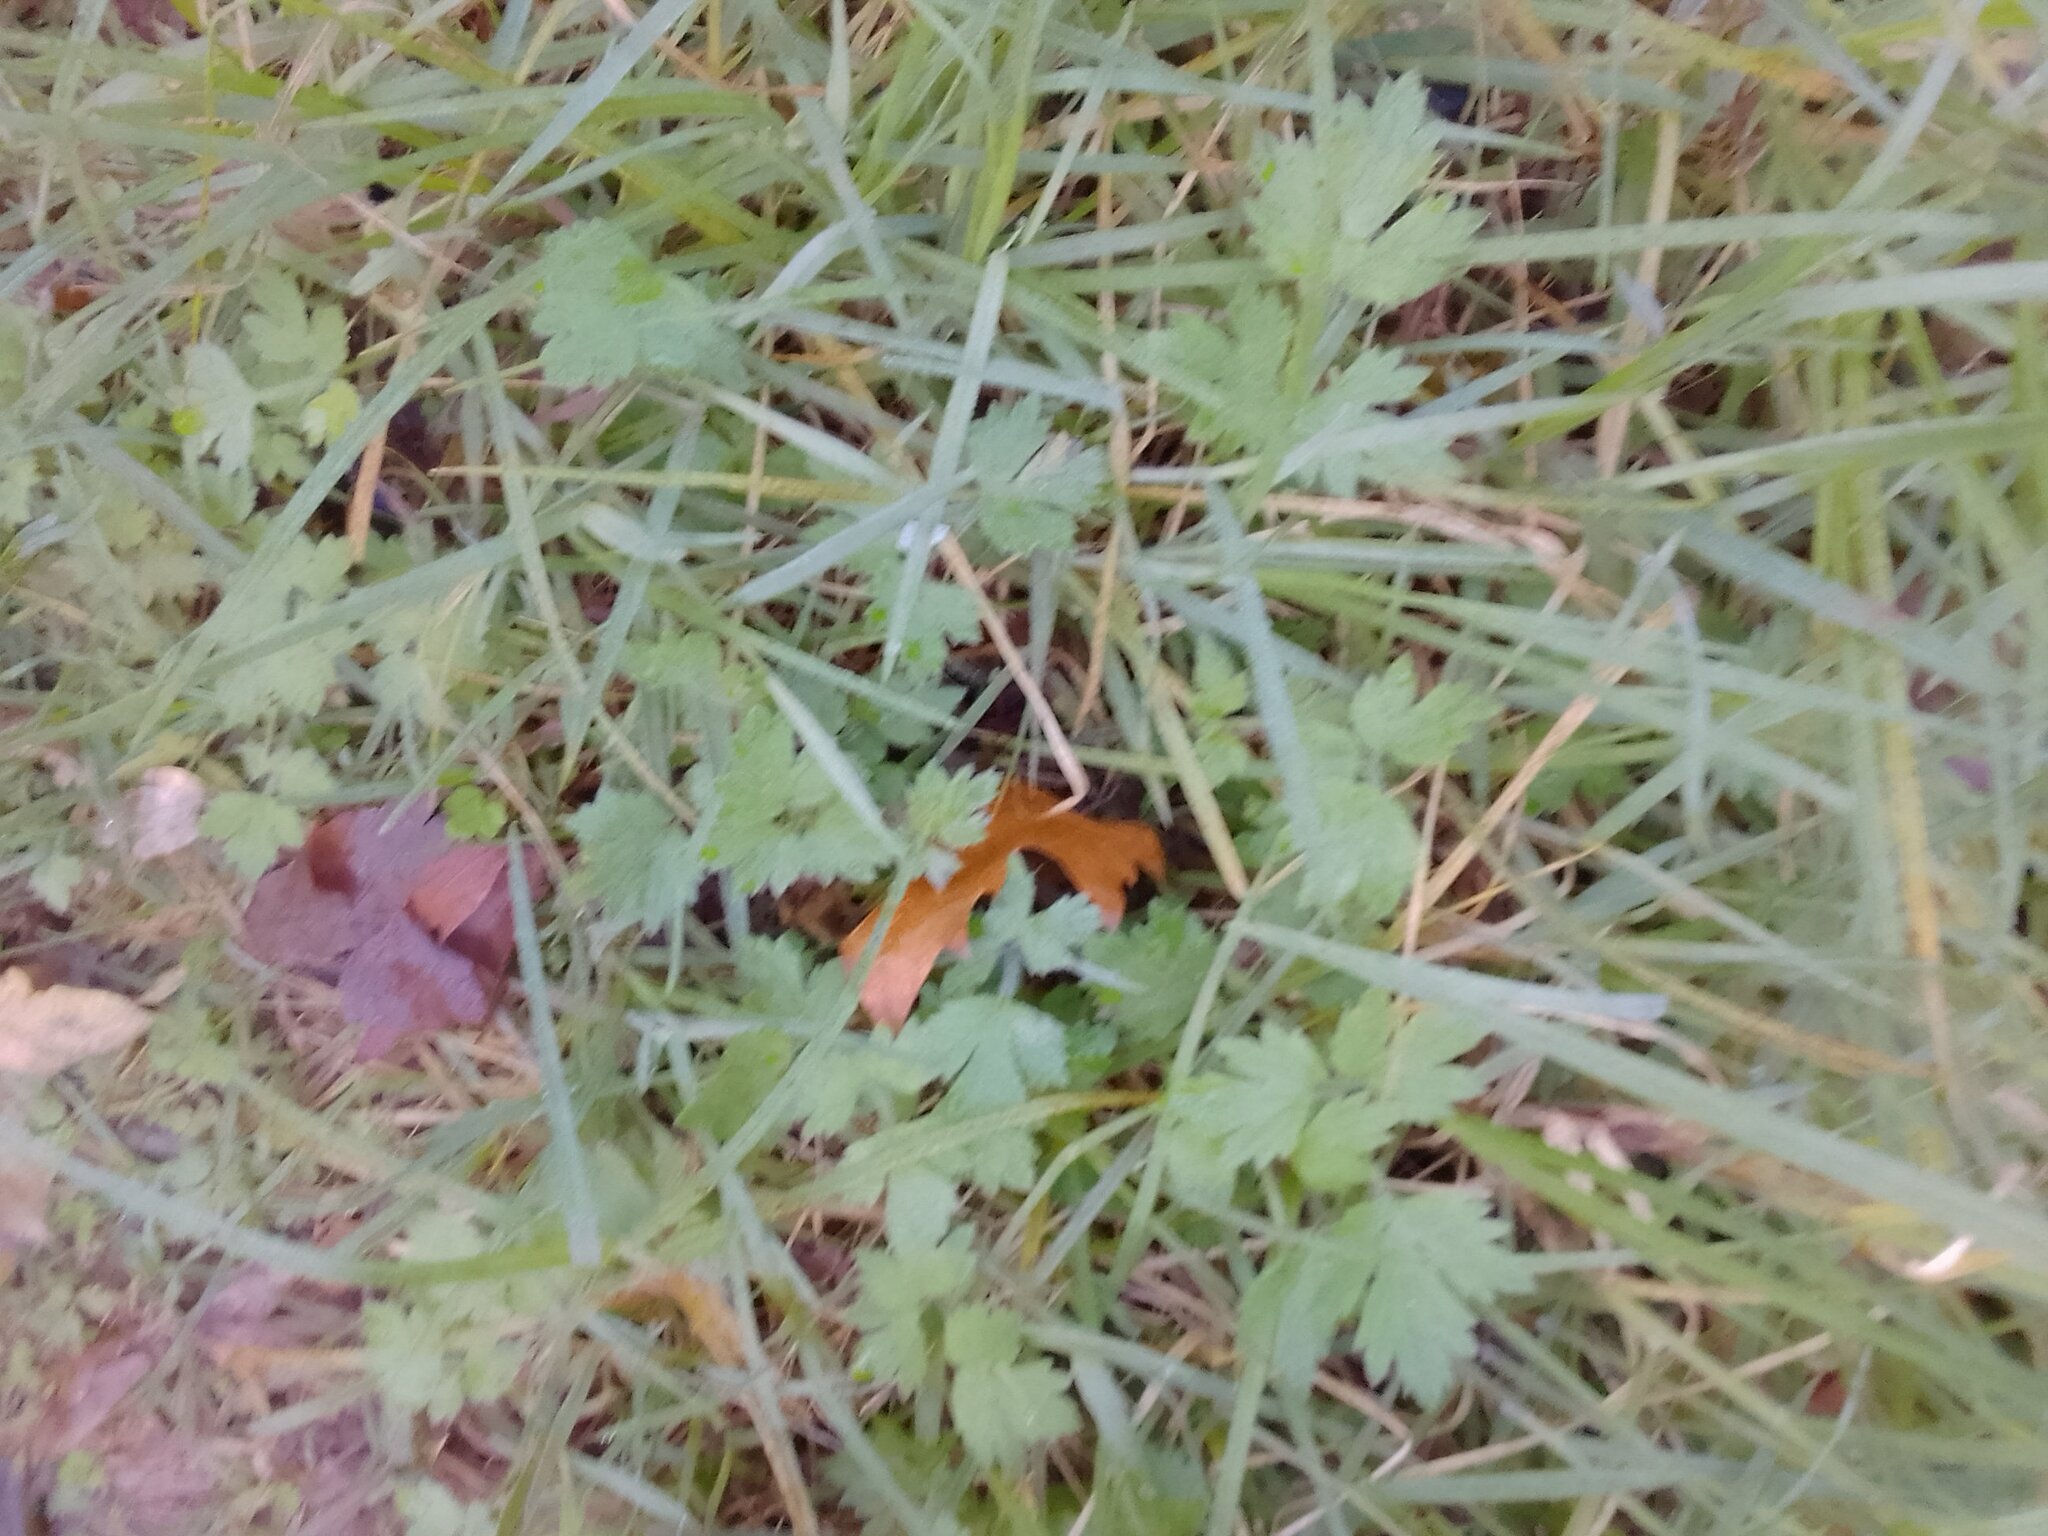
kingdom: Plantae
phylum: Tracheophyta
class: Magnoliopsida
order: Ranunculales
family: Ranunculaceae
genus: Ranunculus
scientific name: Ranunculus multifidus
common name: Wild buttercup
